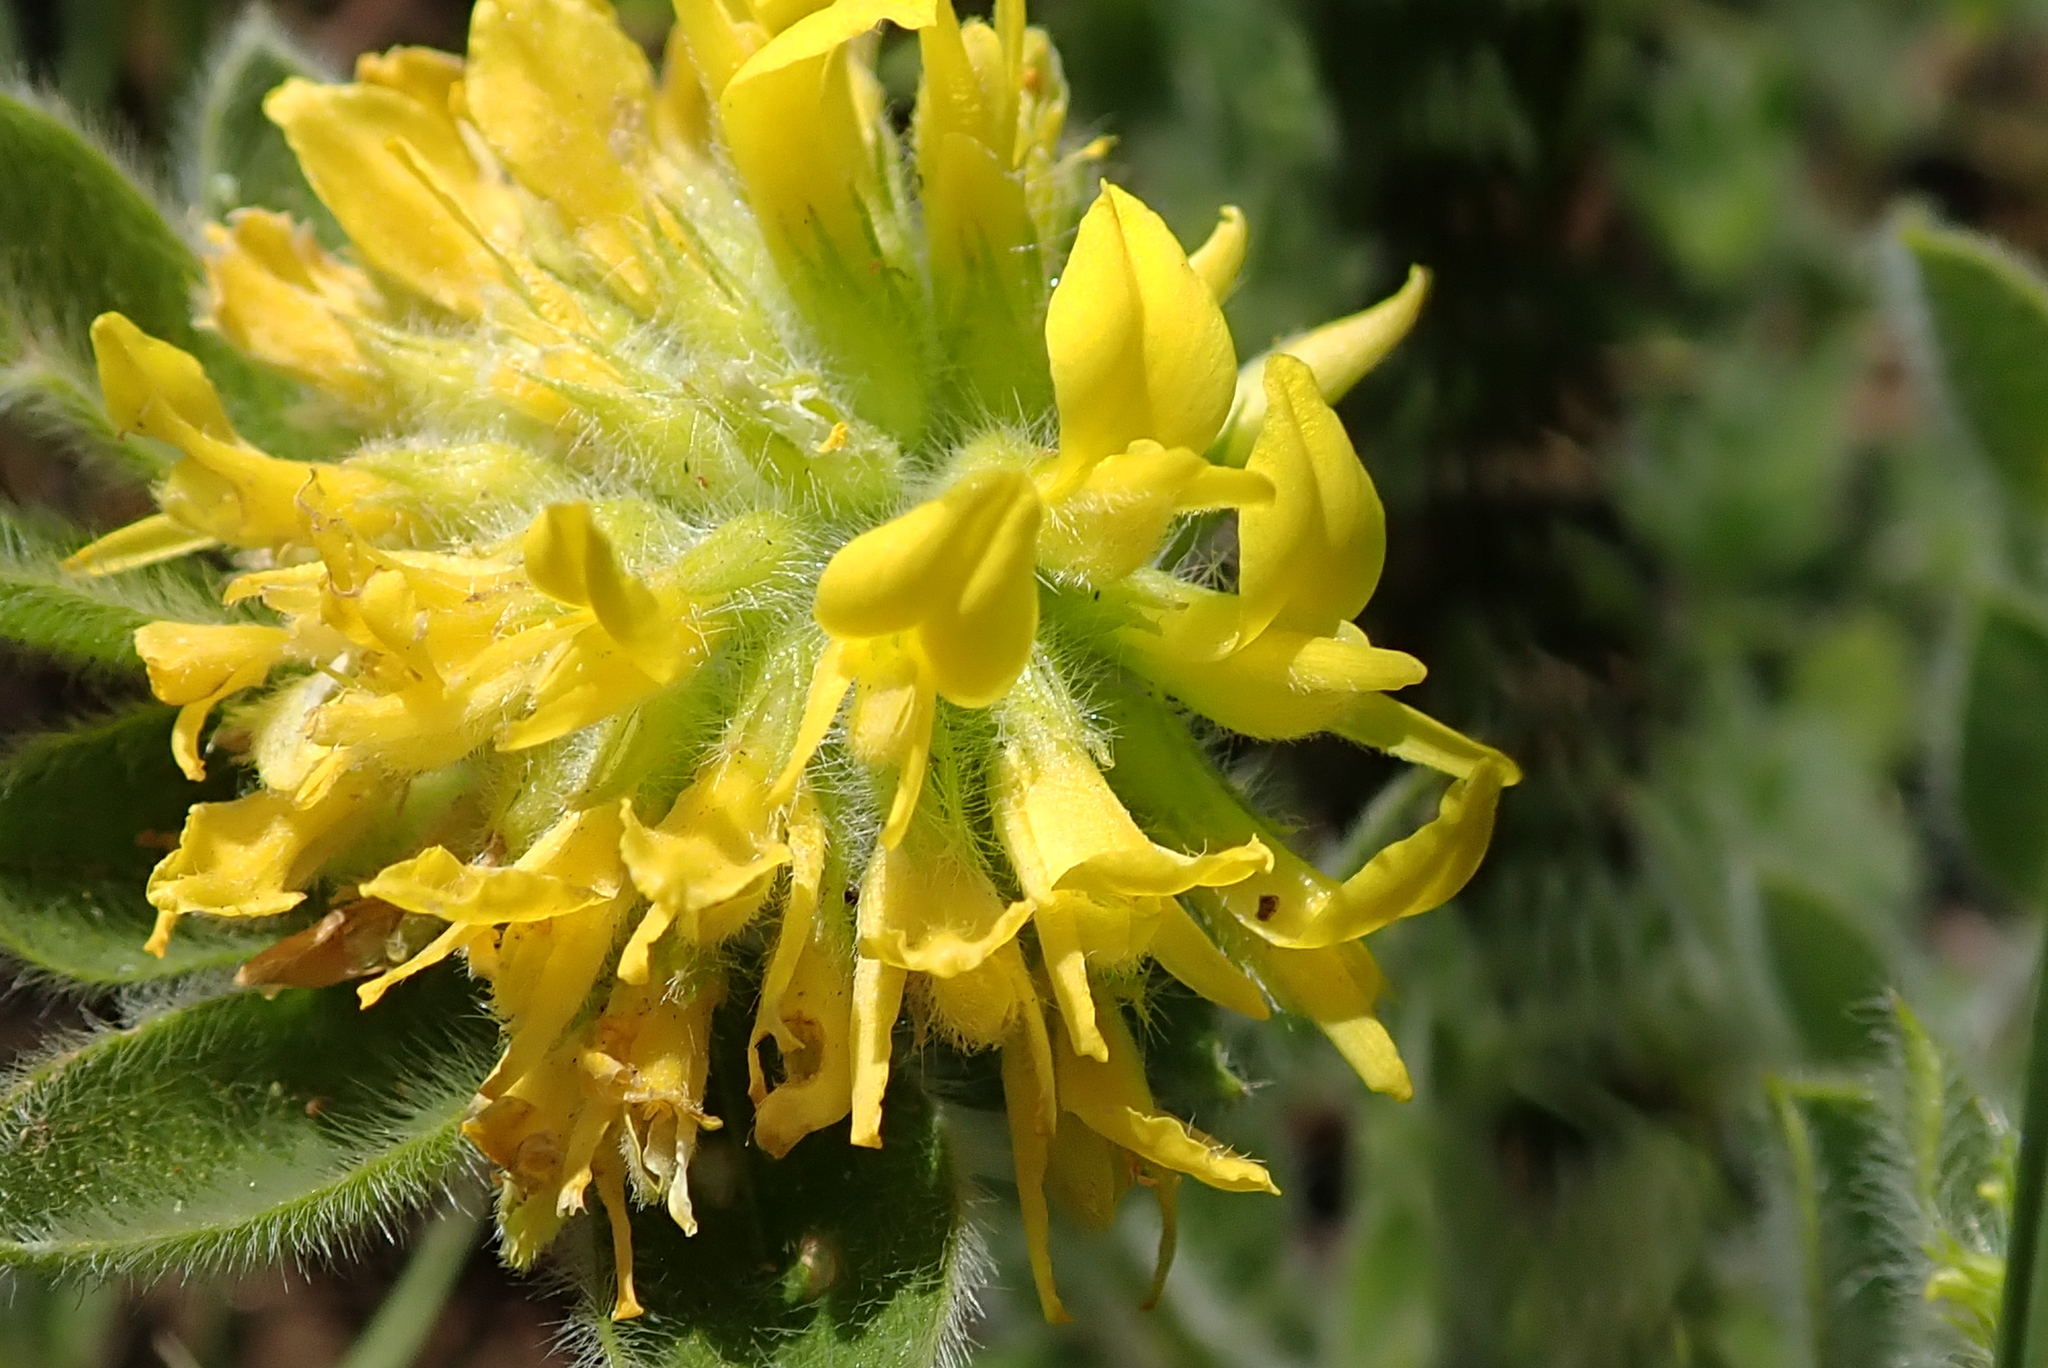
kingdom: Plantae
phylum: Tracheophyta
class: Magnoliopsida
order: Fabales
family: Fabaceae
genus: Leobordea
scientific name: Leobordea corymbosa
